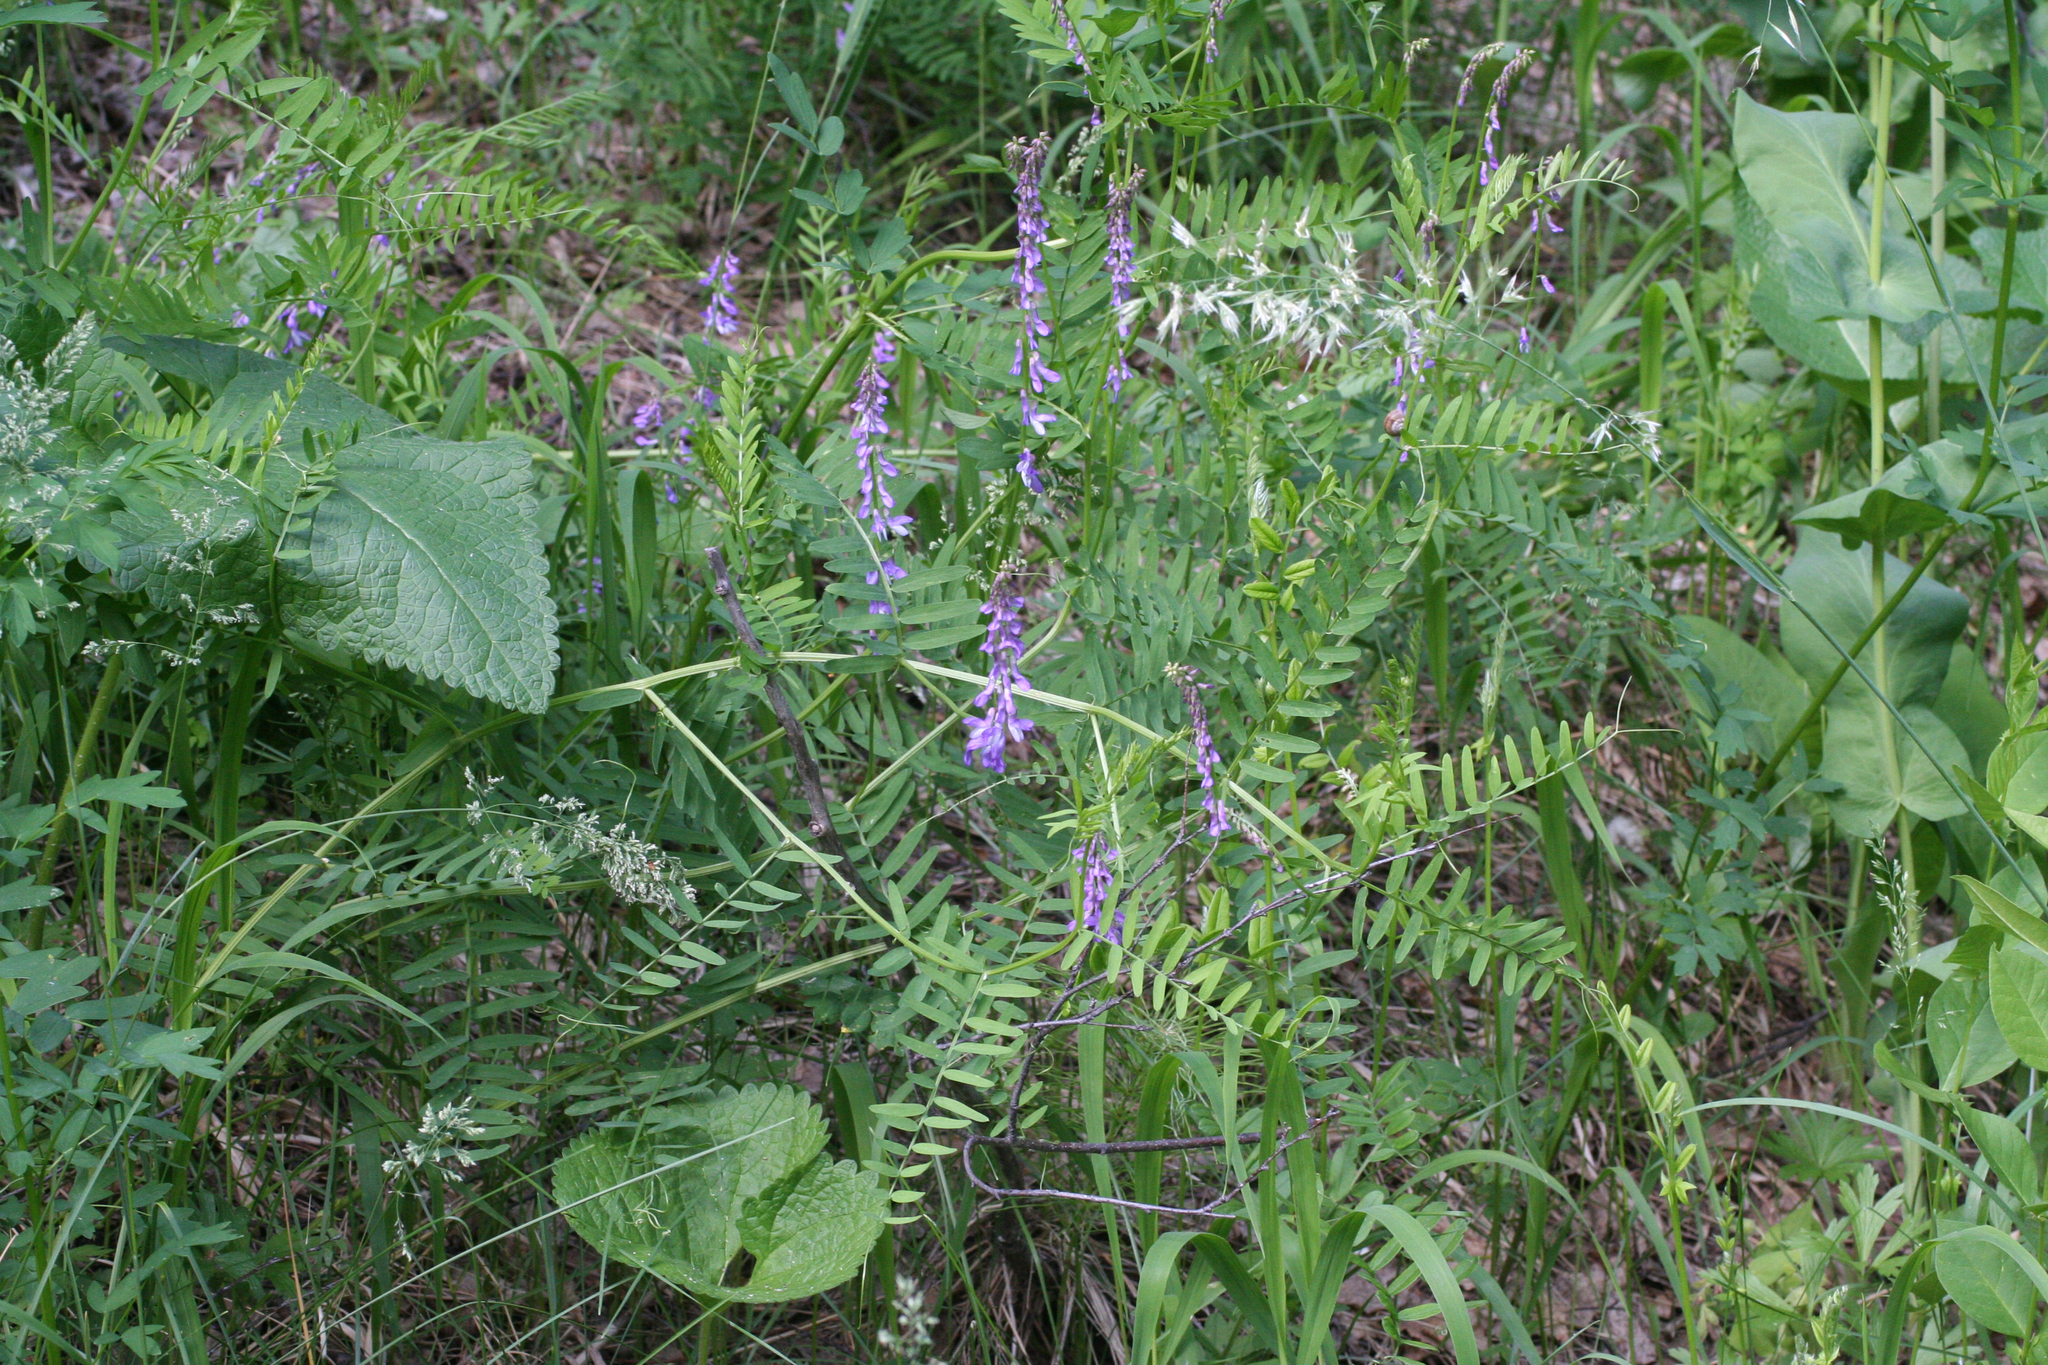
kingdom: Plantae
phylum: Tracheophyta
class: Magnoliopsida
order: Fabales
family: Fabaceae
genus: Vicia
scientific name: Vicia tenuifolia
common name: Fine-leaved vetch
